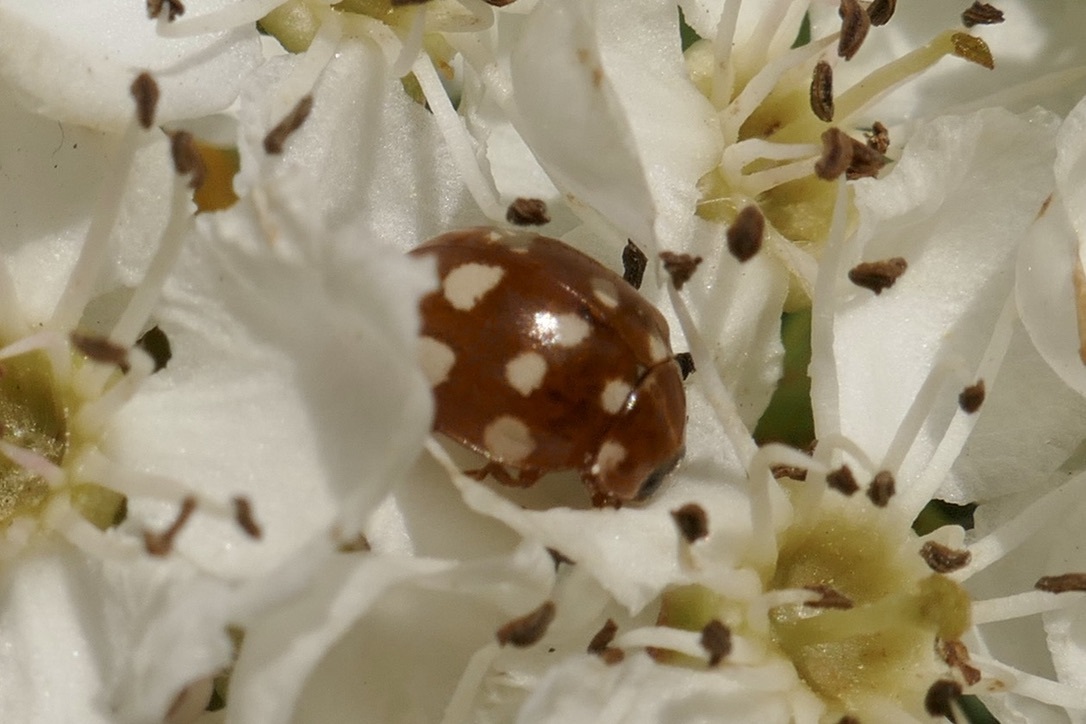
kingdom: Animalia
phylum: Arthropoda
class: Insecta
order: Coleoptera
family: Coccinellidae
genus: Calvia
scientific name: Calvia quatuordecimguttata
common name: Cream-spot ladybird
